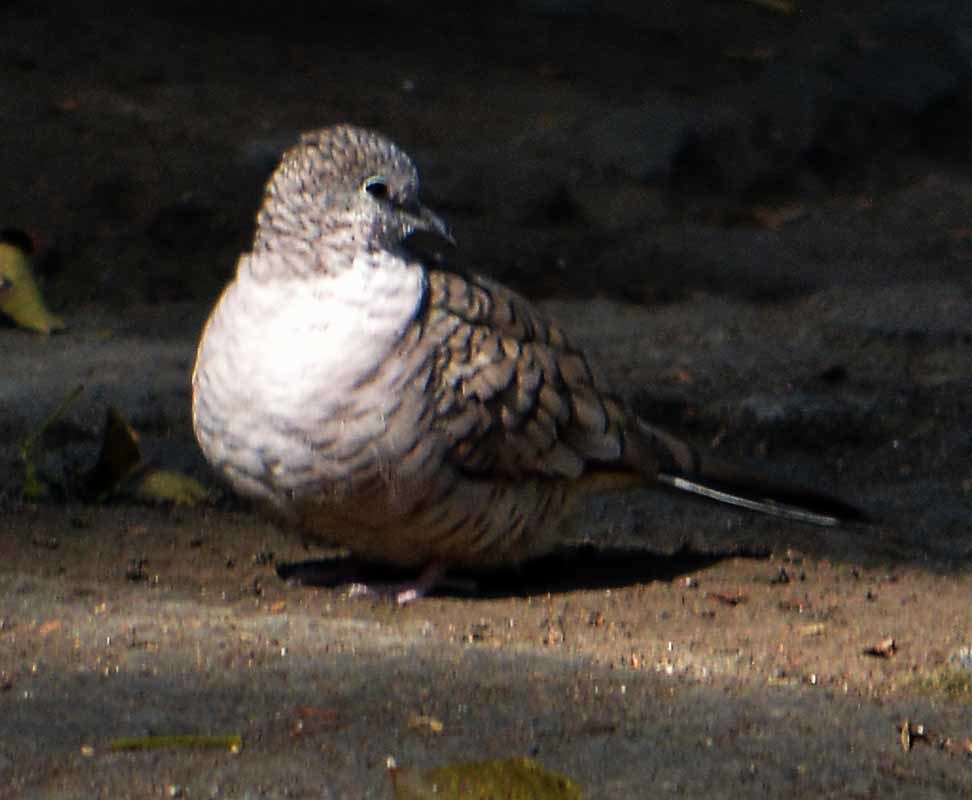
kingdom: Animalia
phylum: Chordata
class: Aves
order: Columbiformes
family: Columbidae
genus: Columbina
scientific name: Columbina inca
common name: Inca dove
